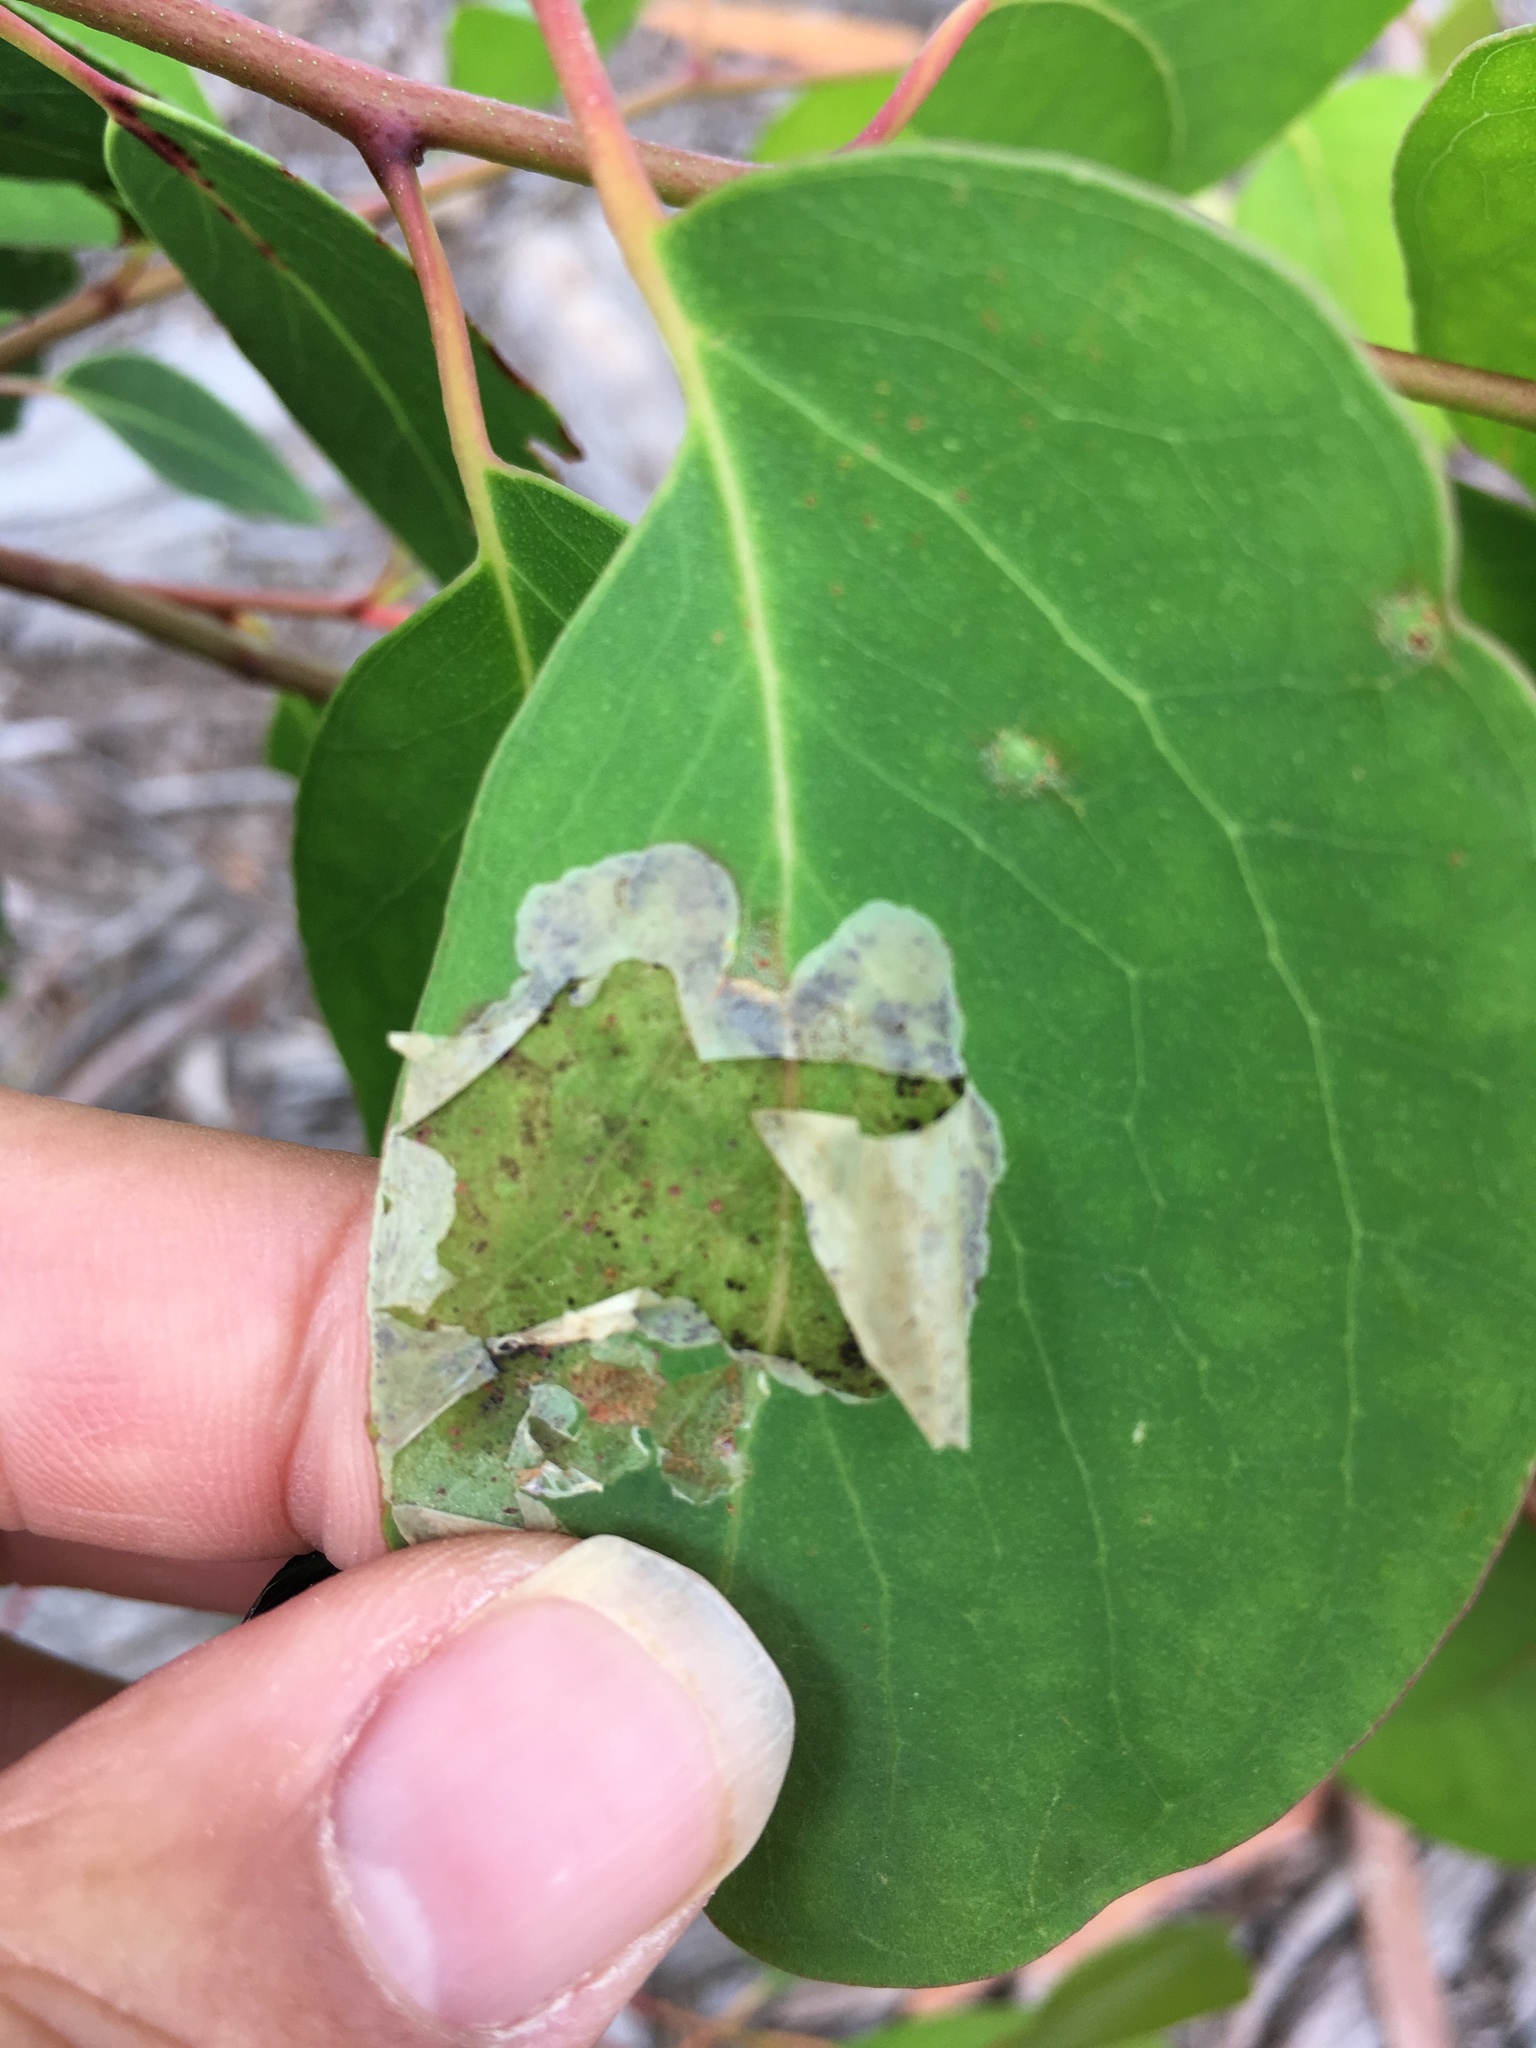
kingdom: Animalia
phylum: Arthropoda
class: Insecta
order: Hymenoptera
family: Pergidae
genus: Phylacteophaga
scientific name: Phylacteophaga froggatti
